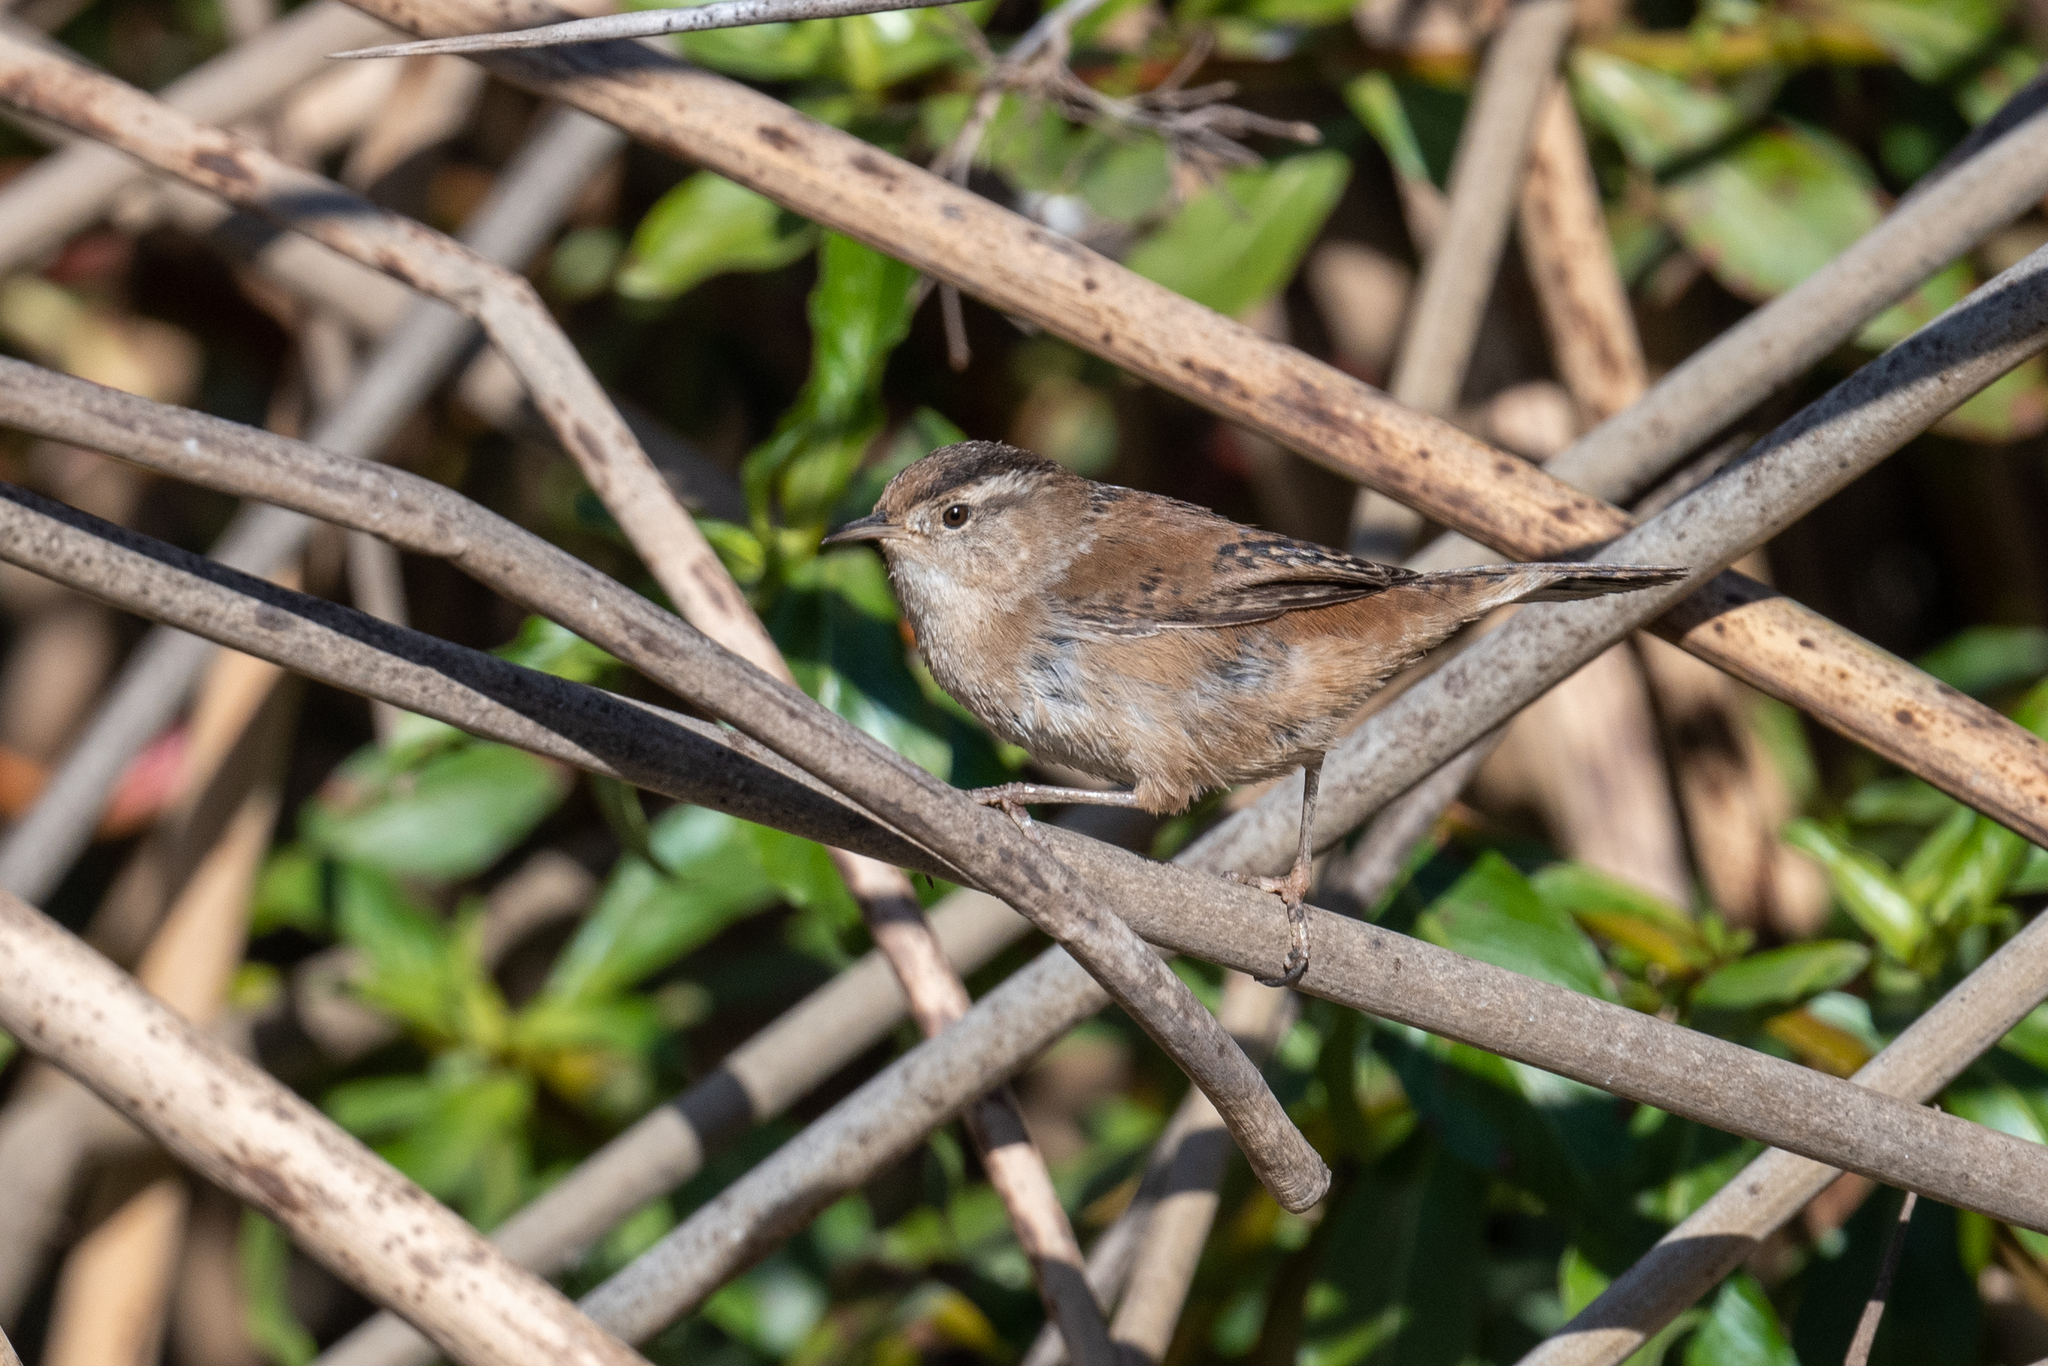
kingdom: Animalia
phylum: Chordata
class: Aves
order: Passeriformes
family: Troglodytidae
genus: Cistothorus
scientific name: Cistothorus palustris
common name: Marsh wren
